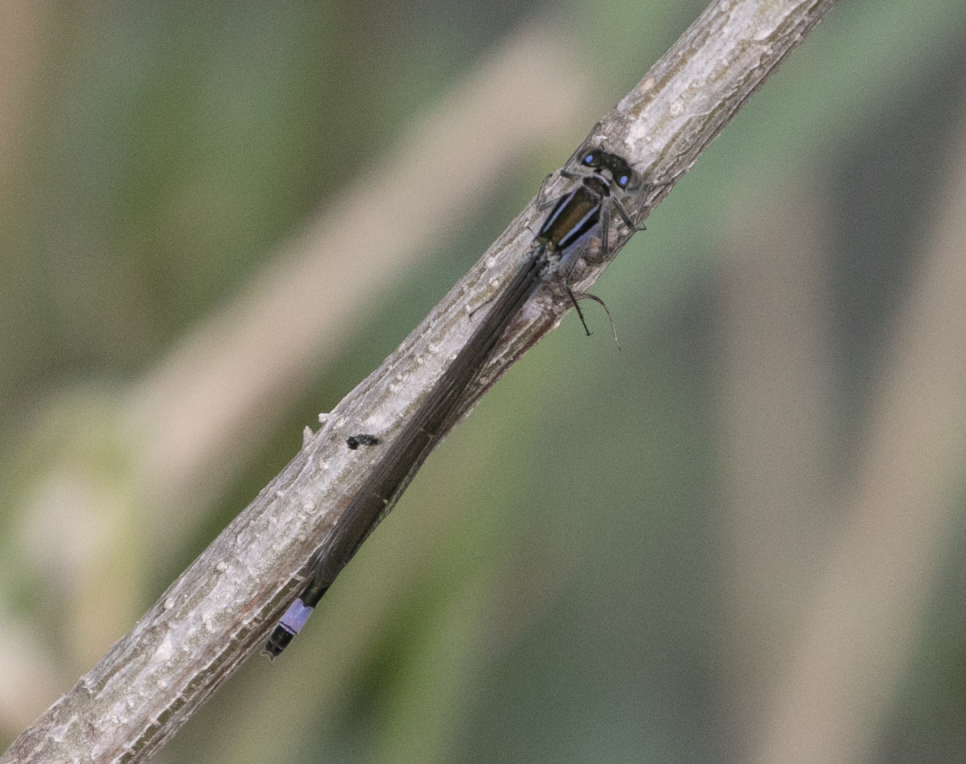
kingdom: Animalia
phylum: Arthropoda
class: Insecta
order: Odonata
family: Coenagrionidae
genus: Ischnura
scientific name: Ischnura elegans
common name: Blue-tailed damselfly
